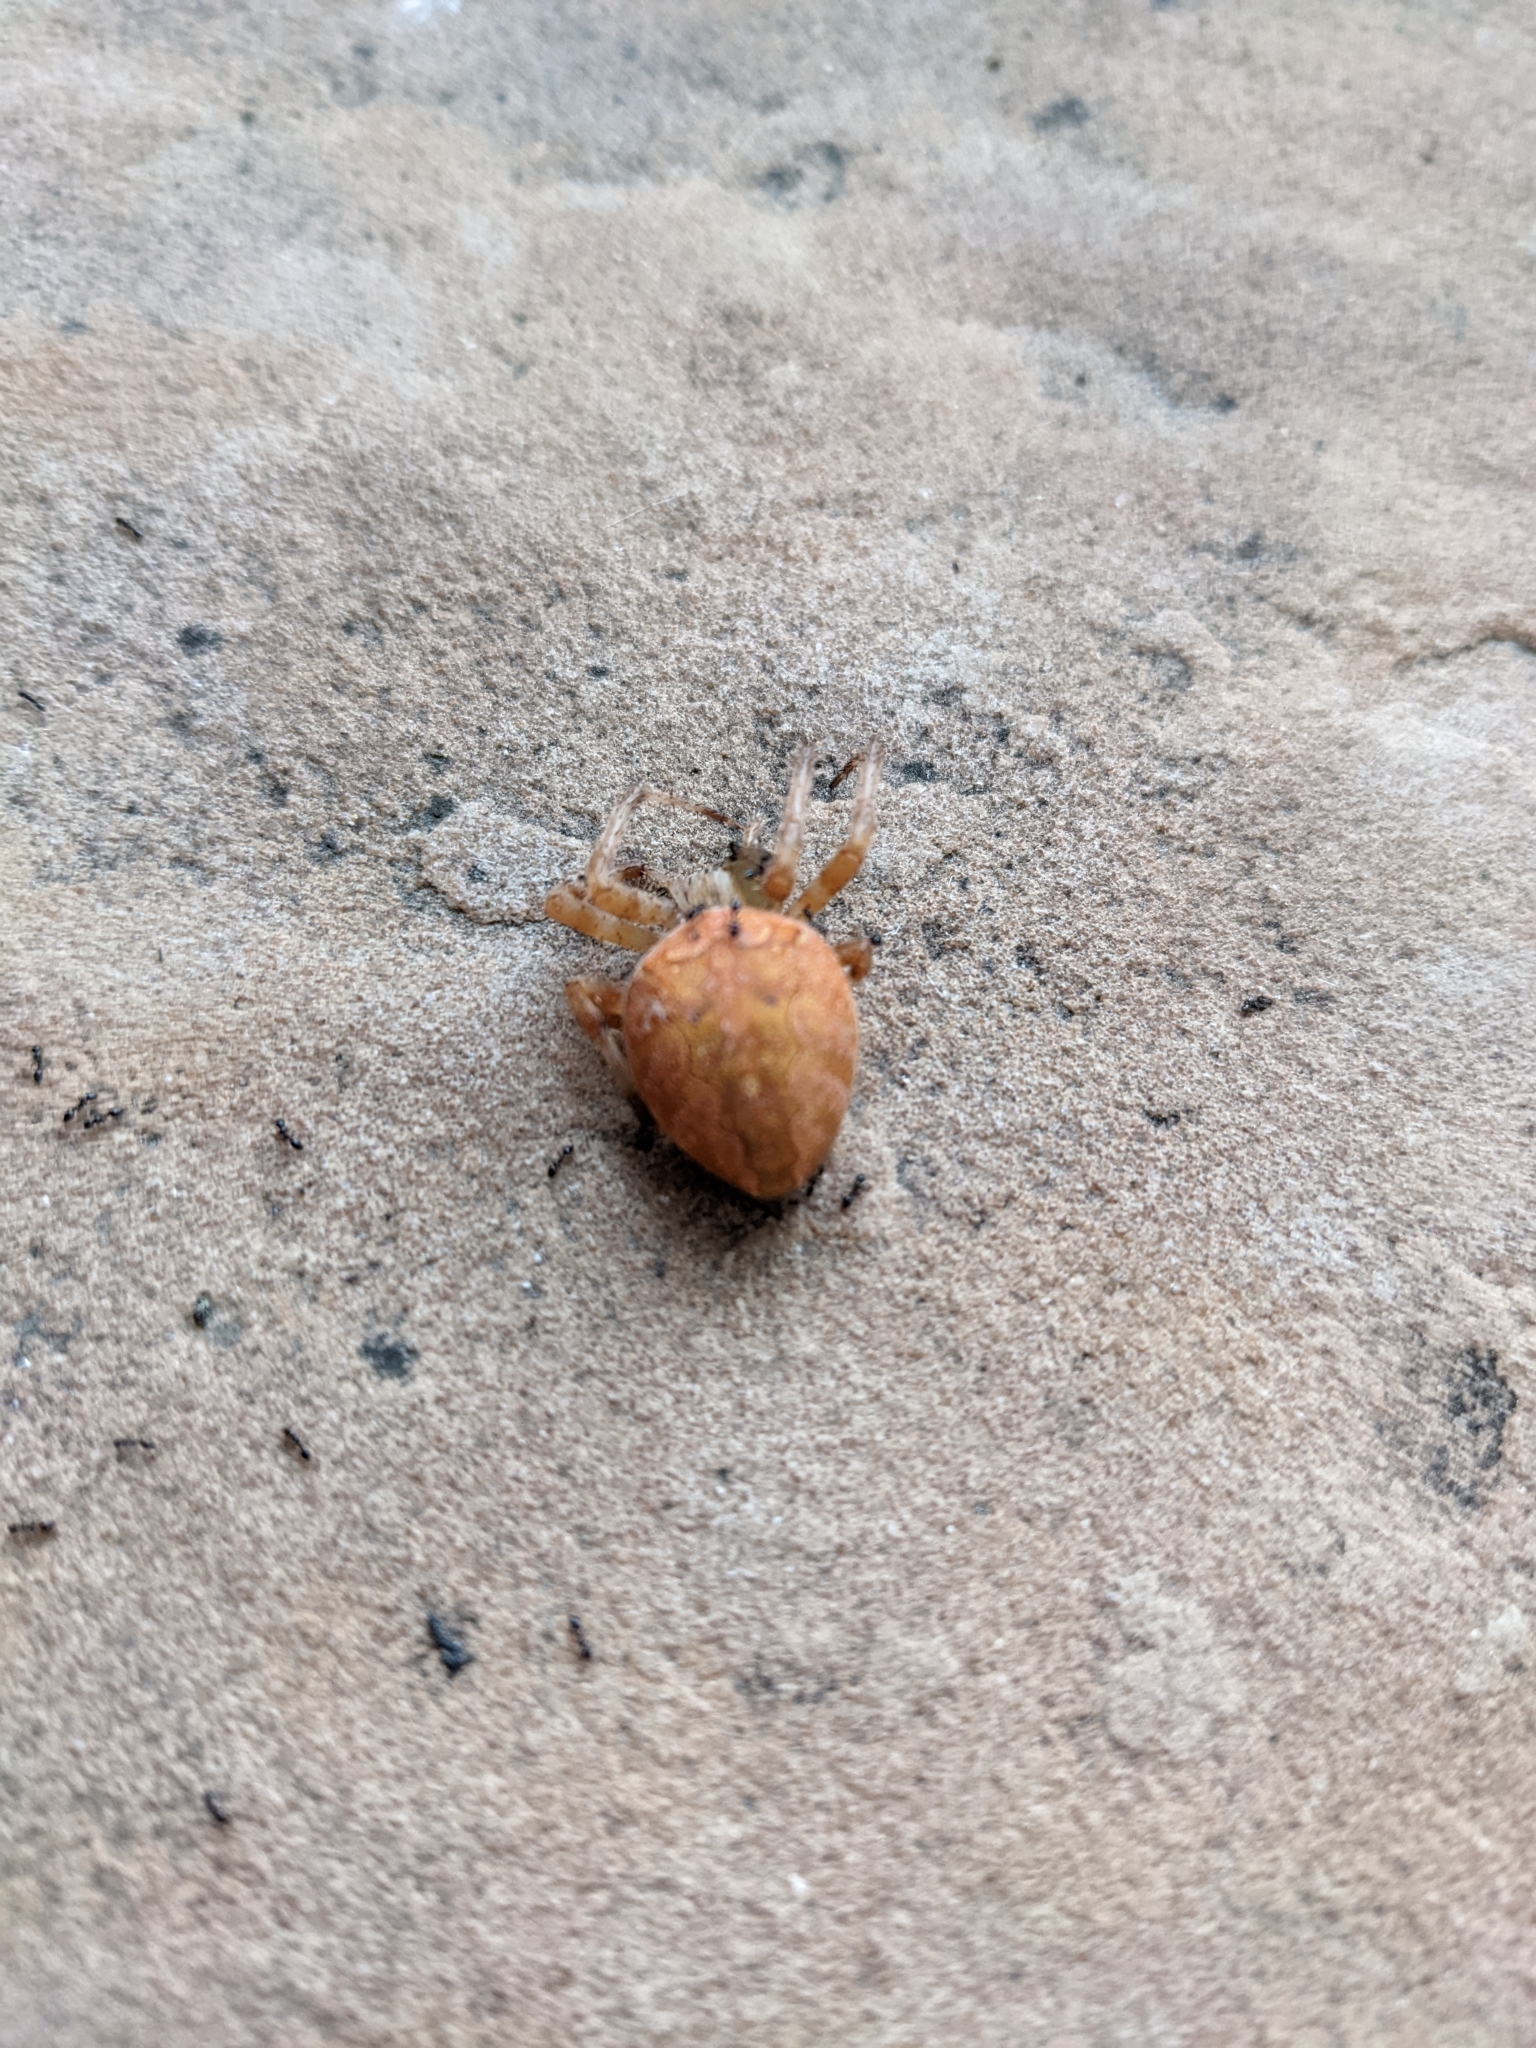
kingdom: Animalia
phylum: Arthropoda
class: Arachnida
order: Araneae
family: Araneidae
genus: Araneus
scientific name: Araneus diadematus
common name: Cross orbweaver
